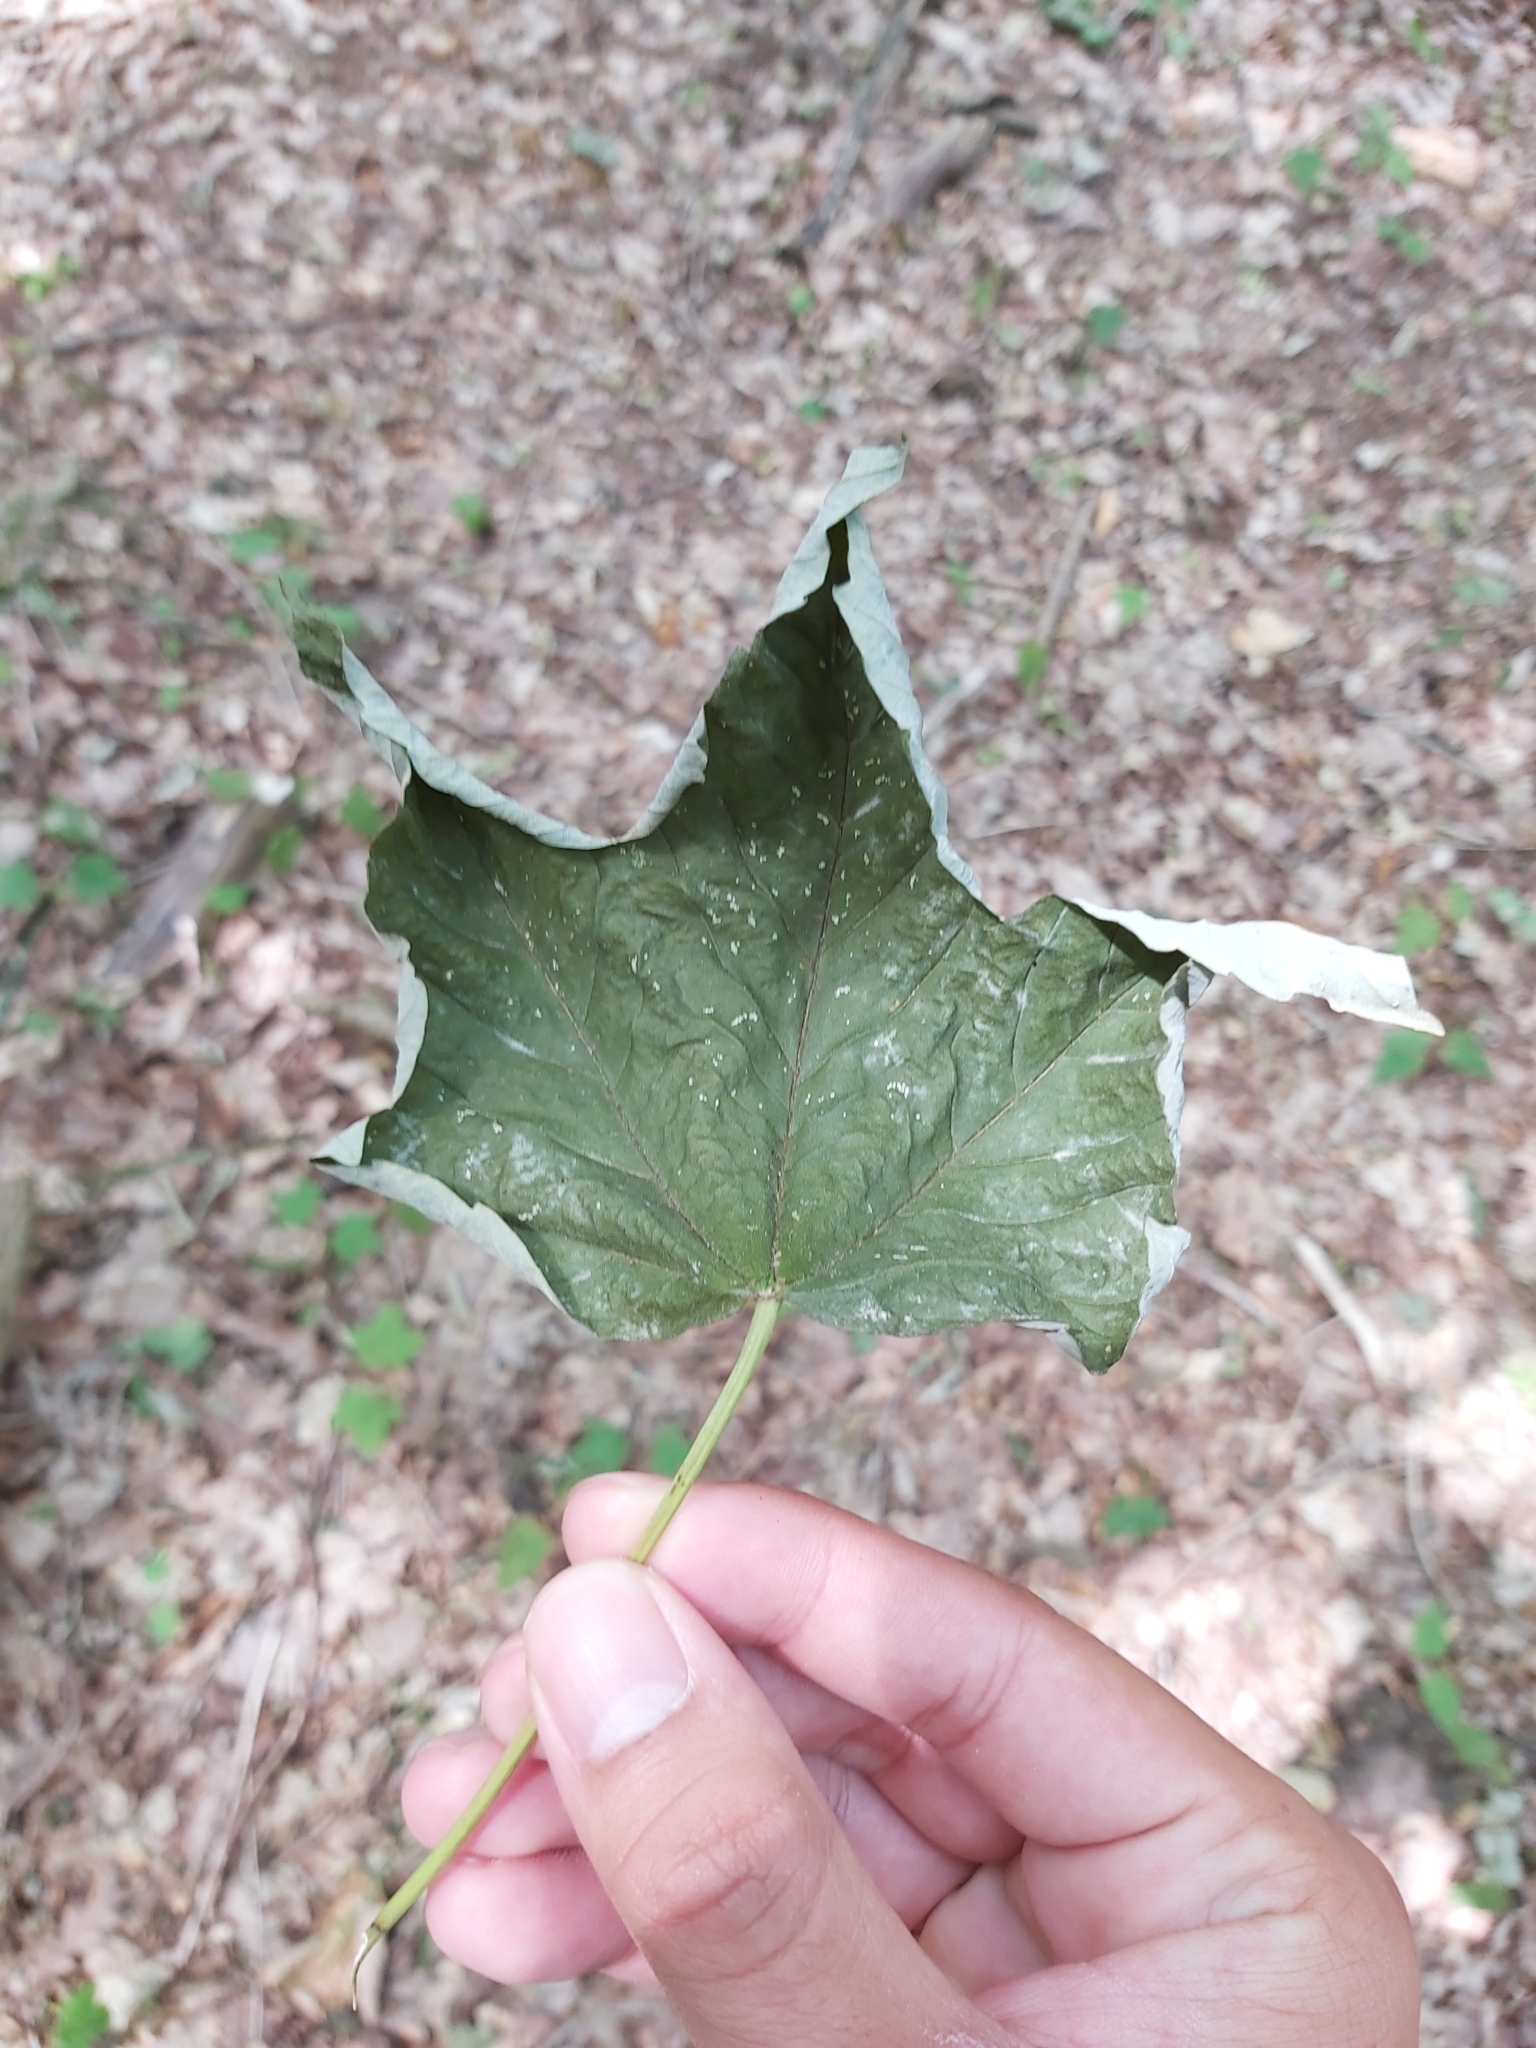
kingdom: Plantae
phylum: Tracheophyta
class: Magnoliopsida
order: Sapindales
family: Sapindaceae
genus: Acer
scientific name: Acer pseudoplatanus
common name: Sycamore
